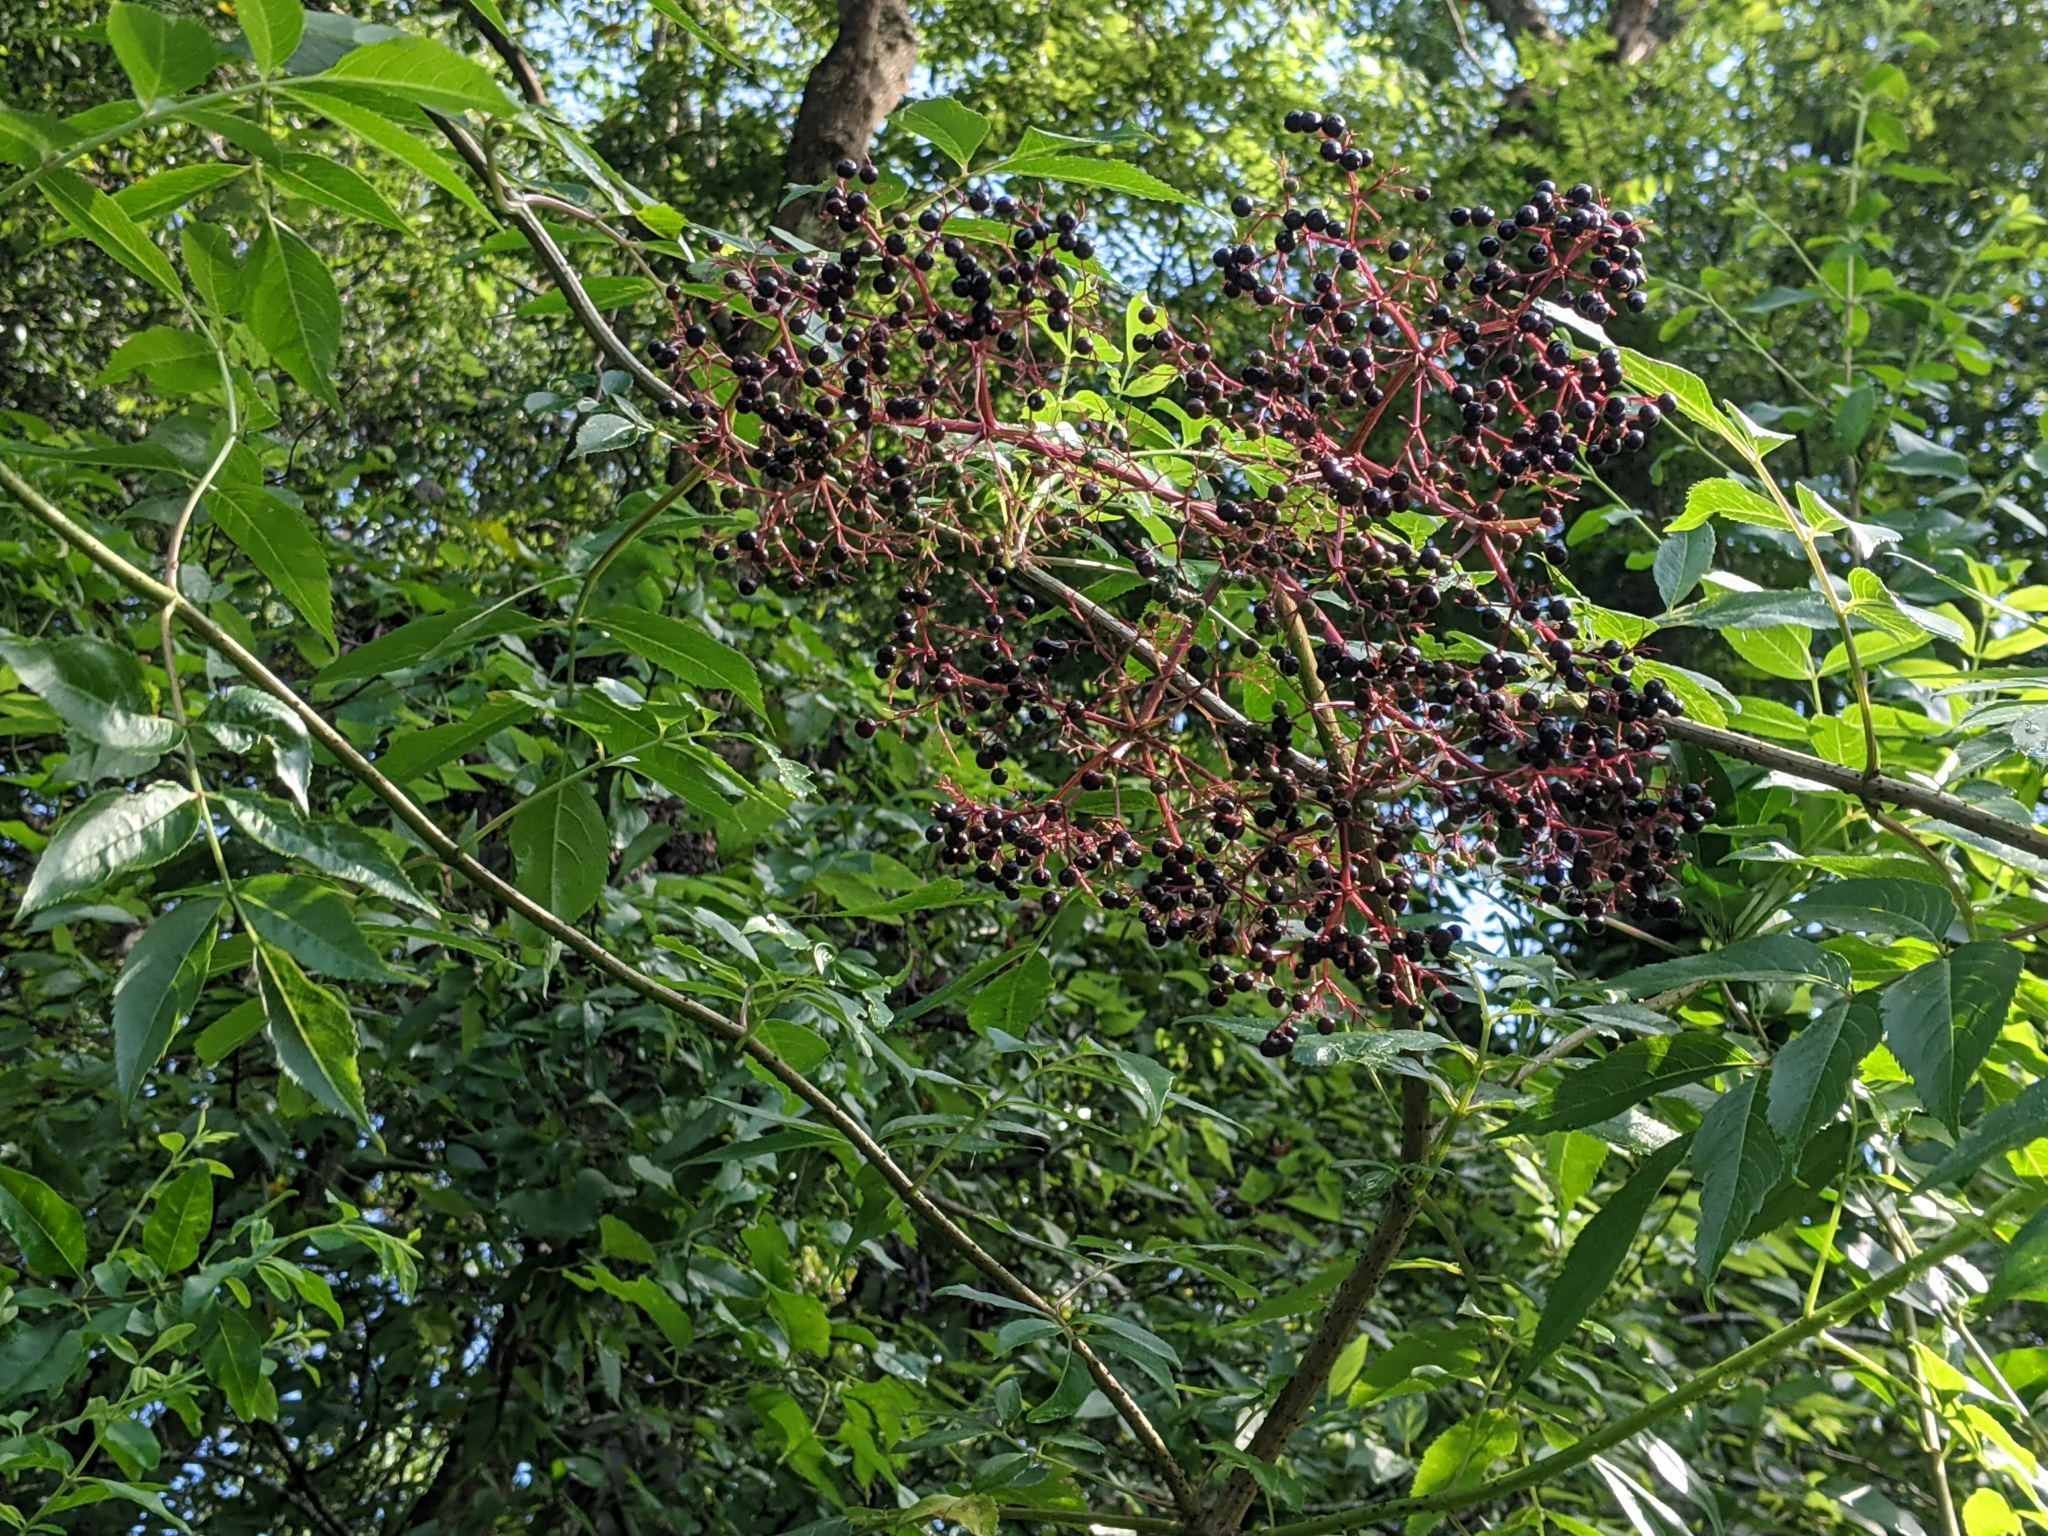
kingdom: Plantae
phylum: Tracheophyta
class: Magnoliopsida
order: Dipsacales
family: Viburnaceae
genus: Sambucus
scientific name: Sambucus canadensis
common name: American elder
